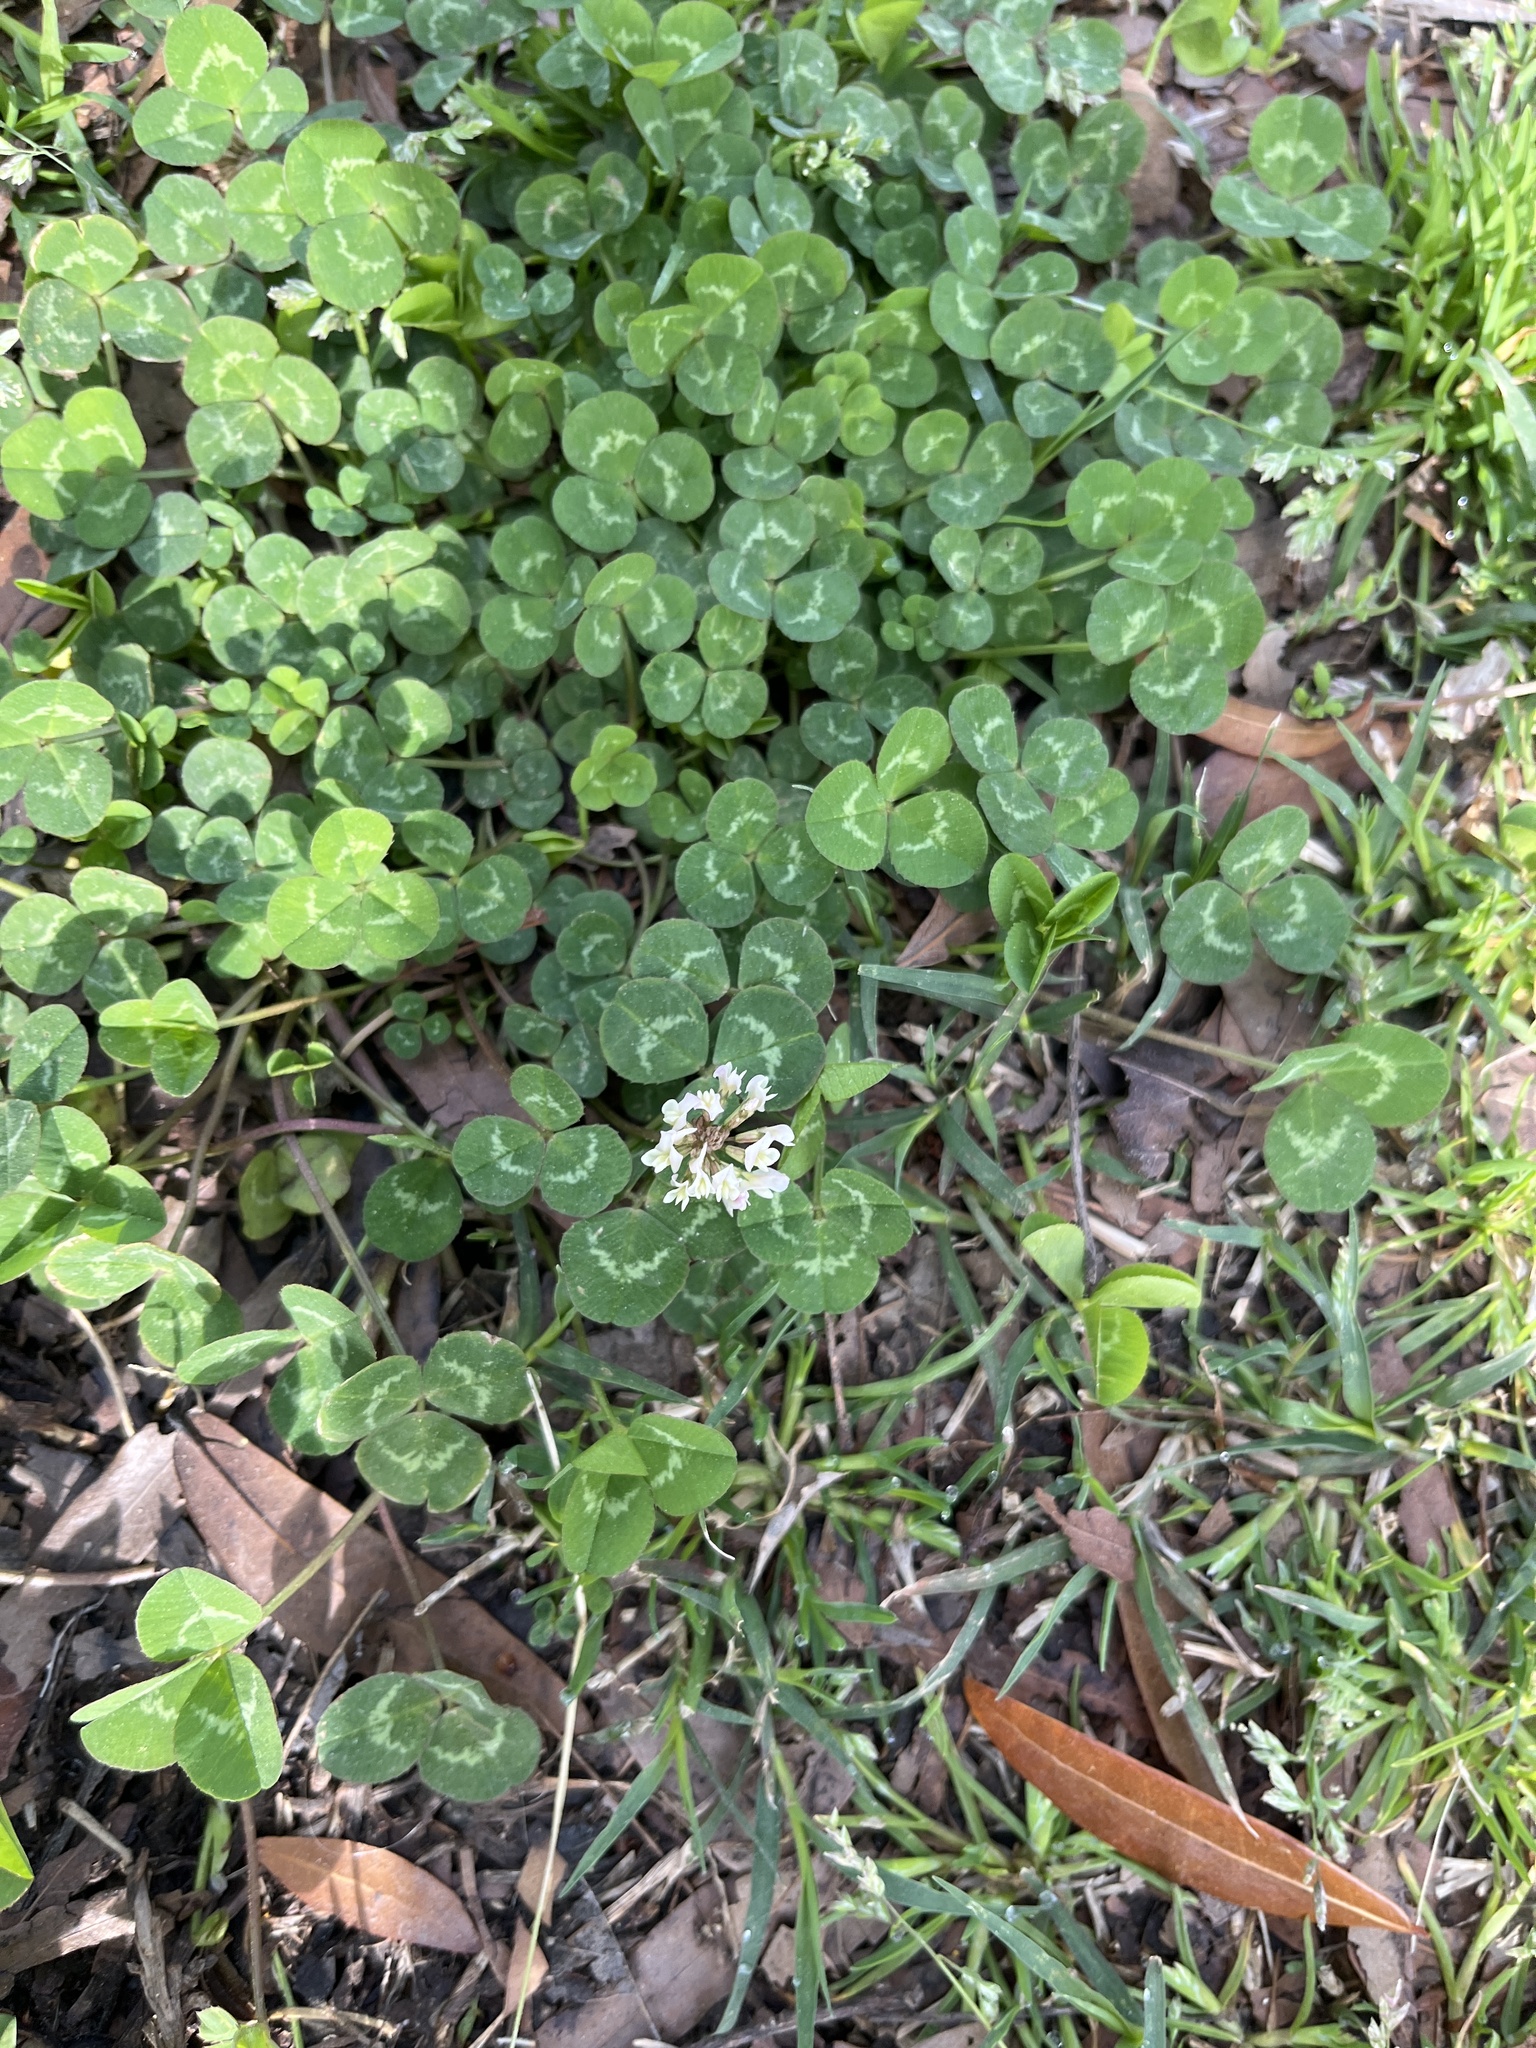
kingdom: Plantae
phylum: Tracheophyta
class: Magnoliopsida
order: Fabales
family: Fabaceae
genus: Trifolium
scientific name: Trifolium repens
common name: White clover
